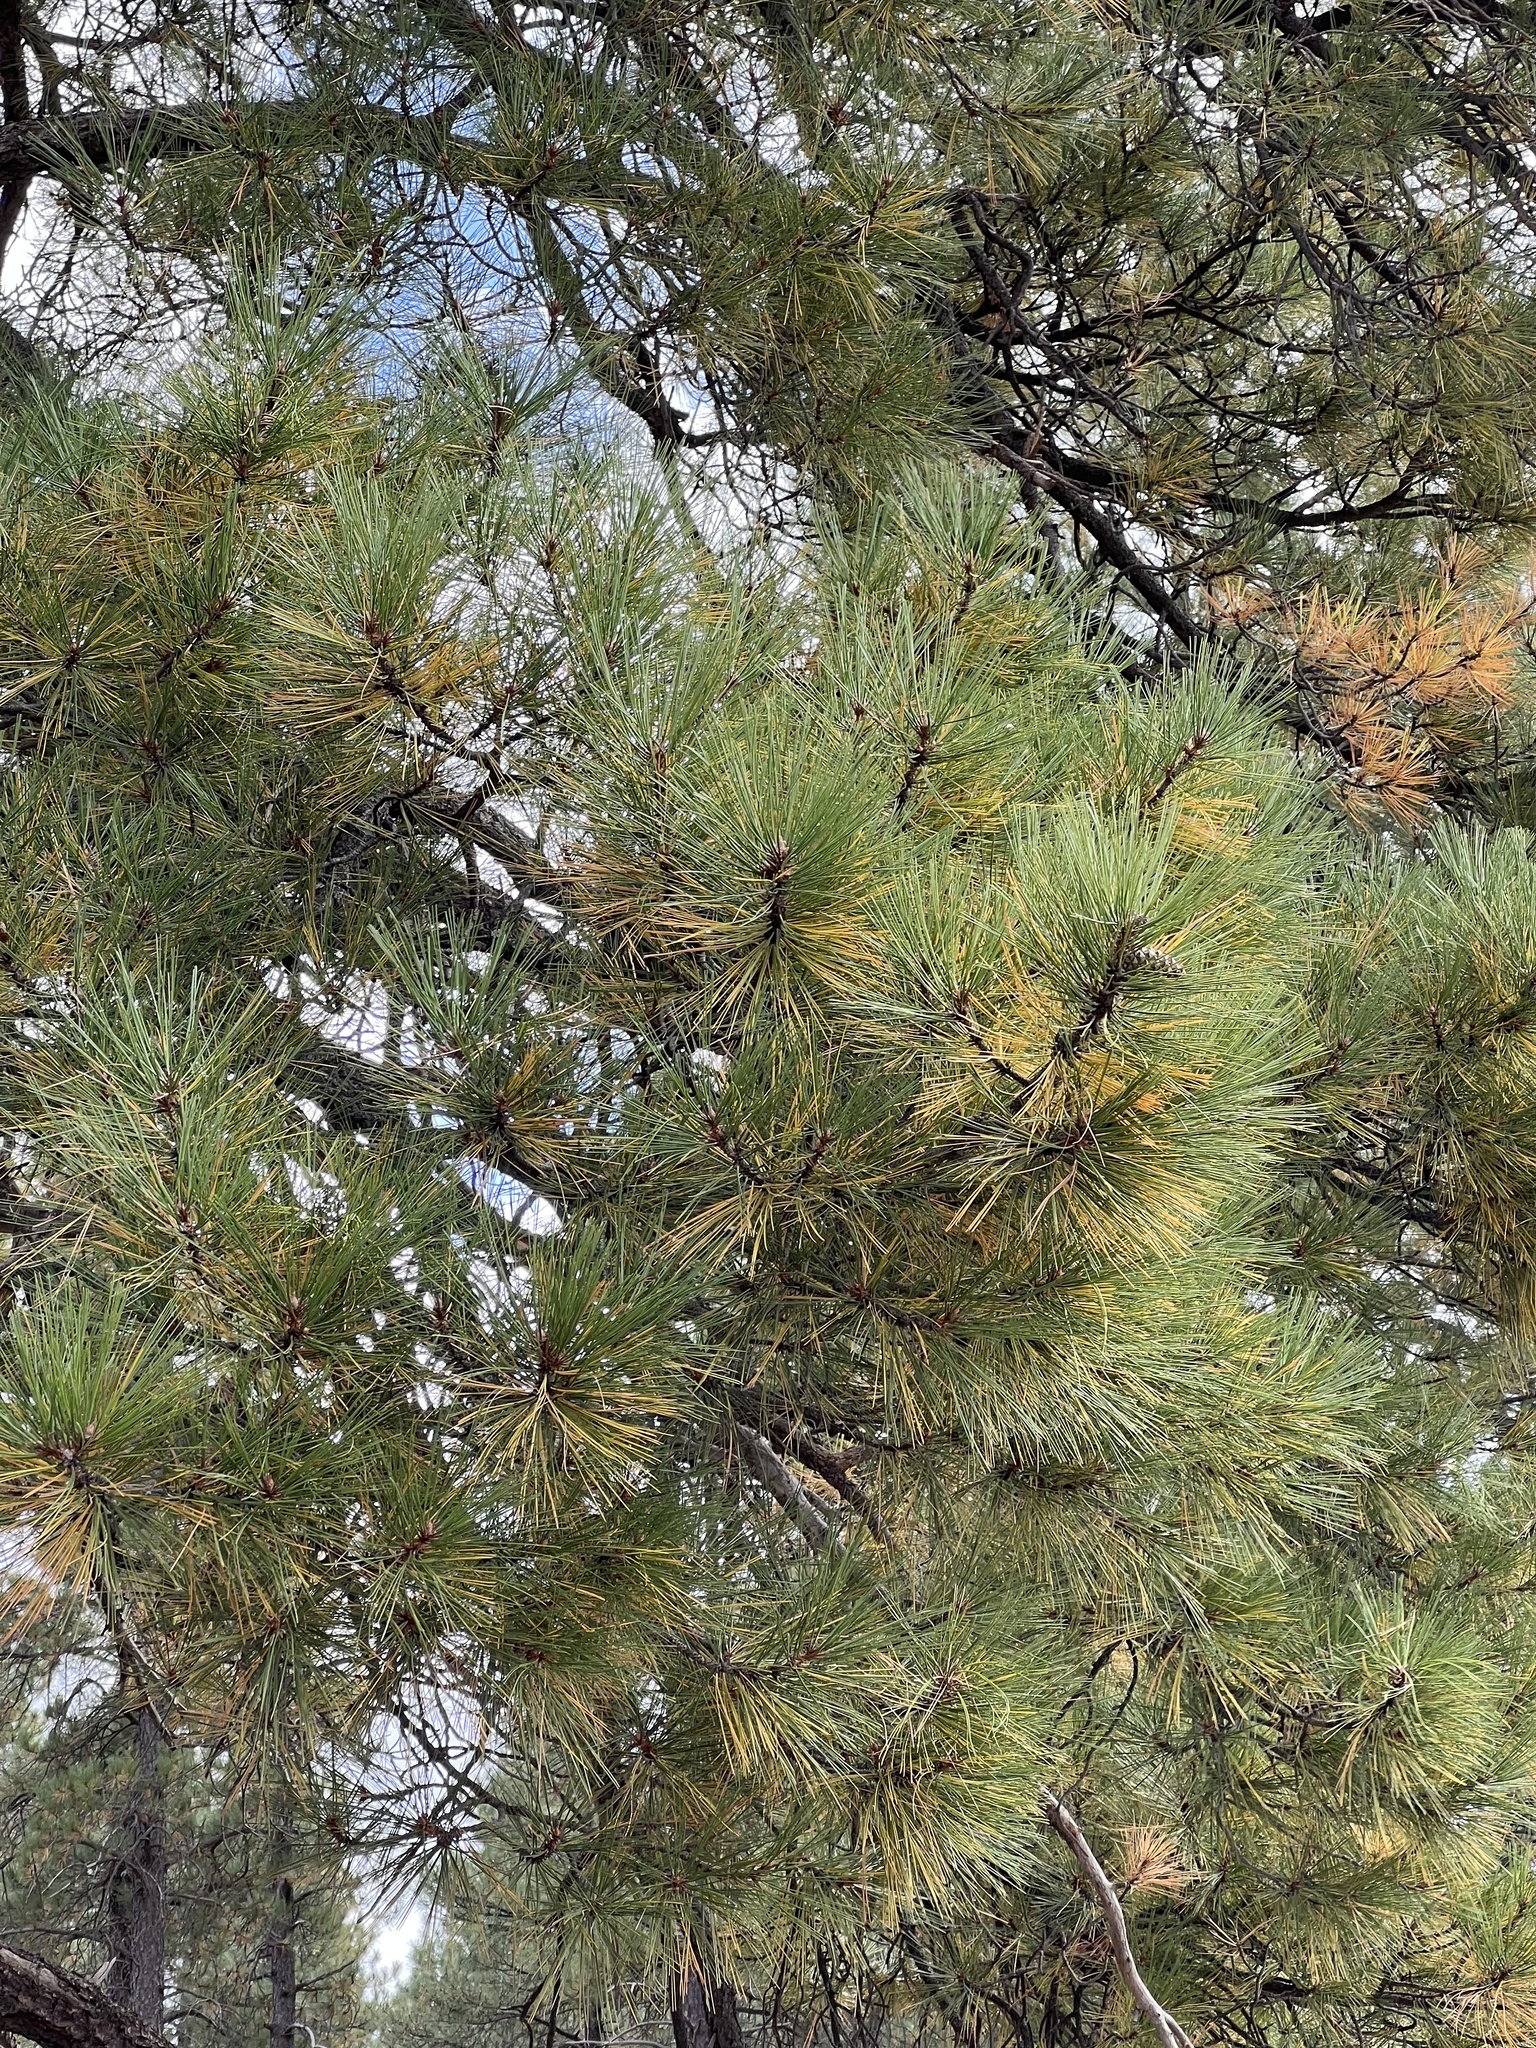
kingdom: Plantae
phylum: Tracheophyta
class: Pinopsida
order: Pinales
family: Pinaceae
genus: Pinus
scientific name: Pinus ponderosa
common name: Western yellow-pine
